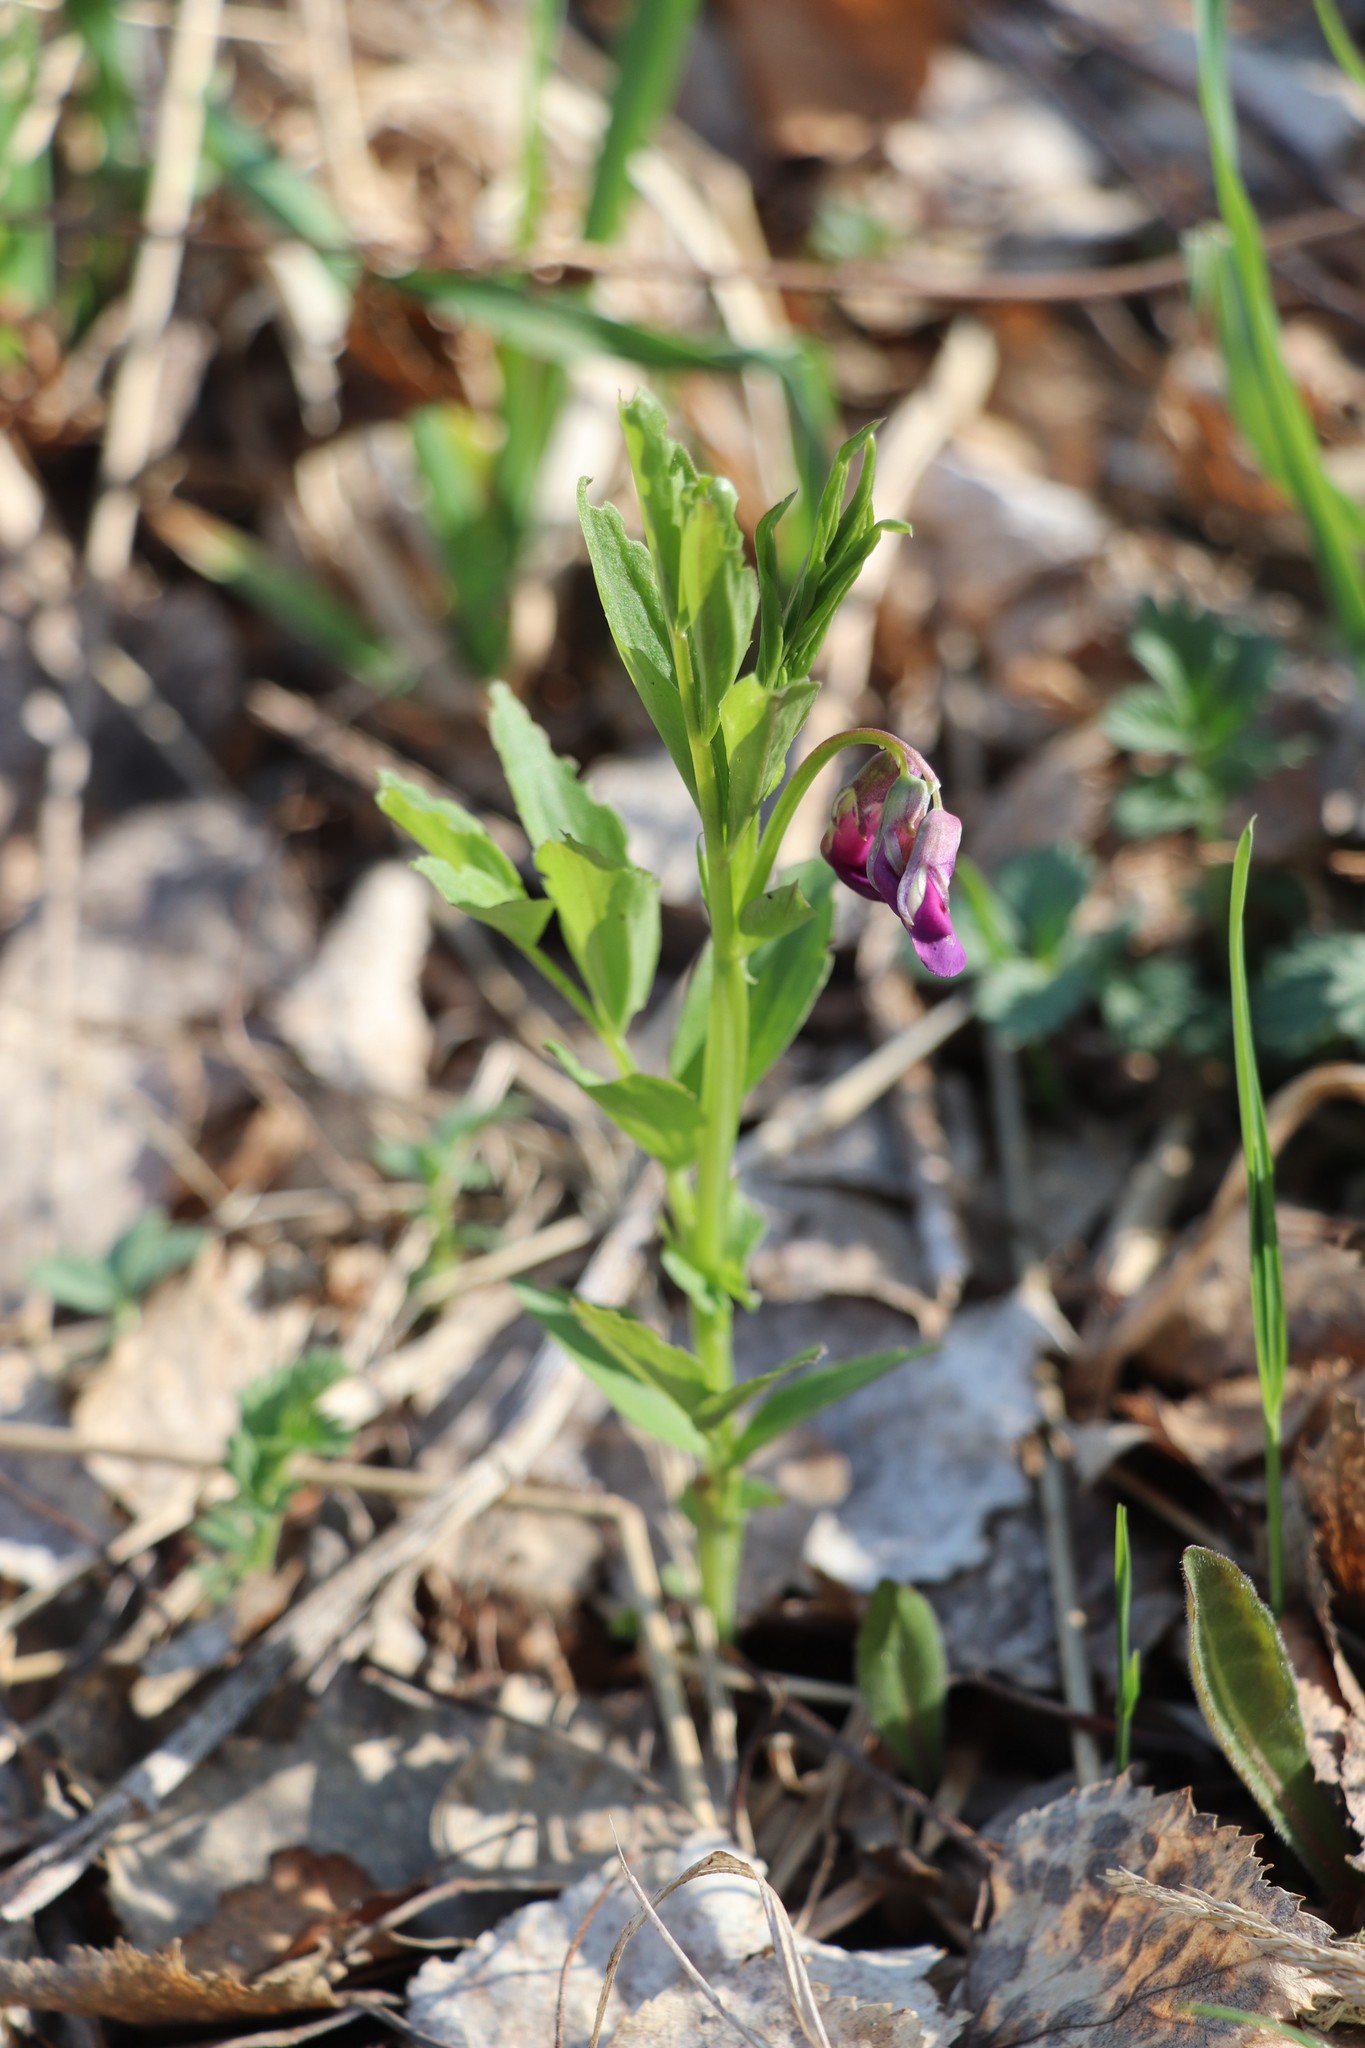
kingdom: Plantae
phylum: Tracheophyta
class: Magnoliopsida
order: Fabales
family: Fabaceae
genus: Lathyrus
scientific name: Lathyrus pisiformis
